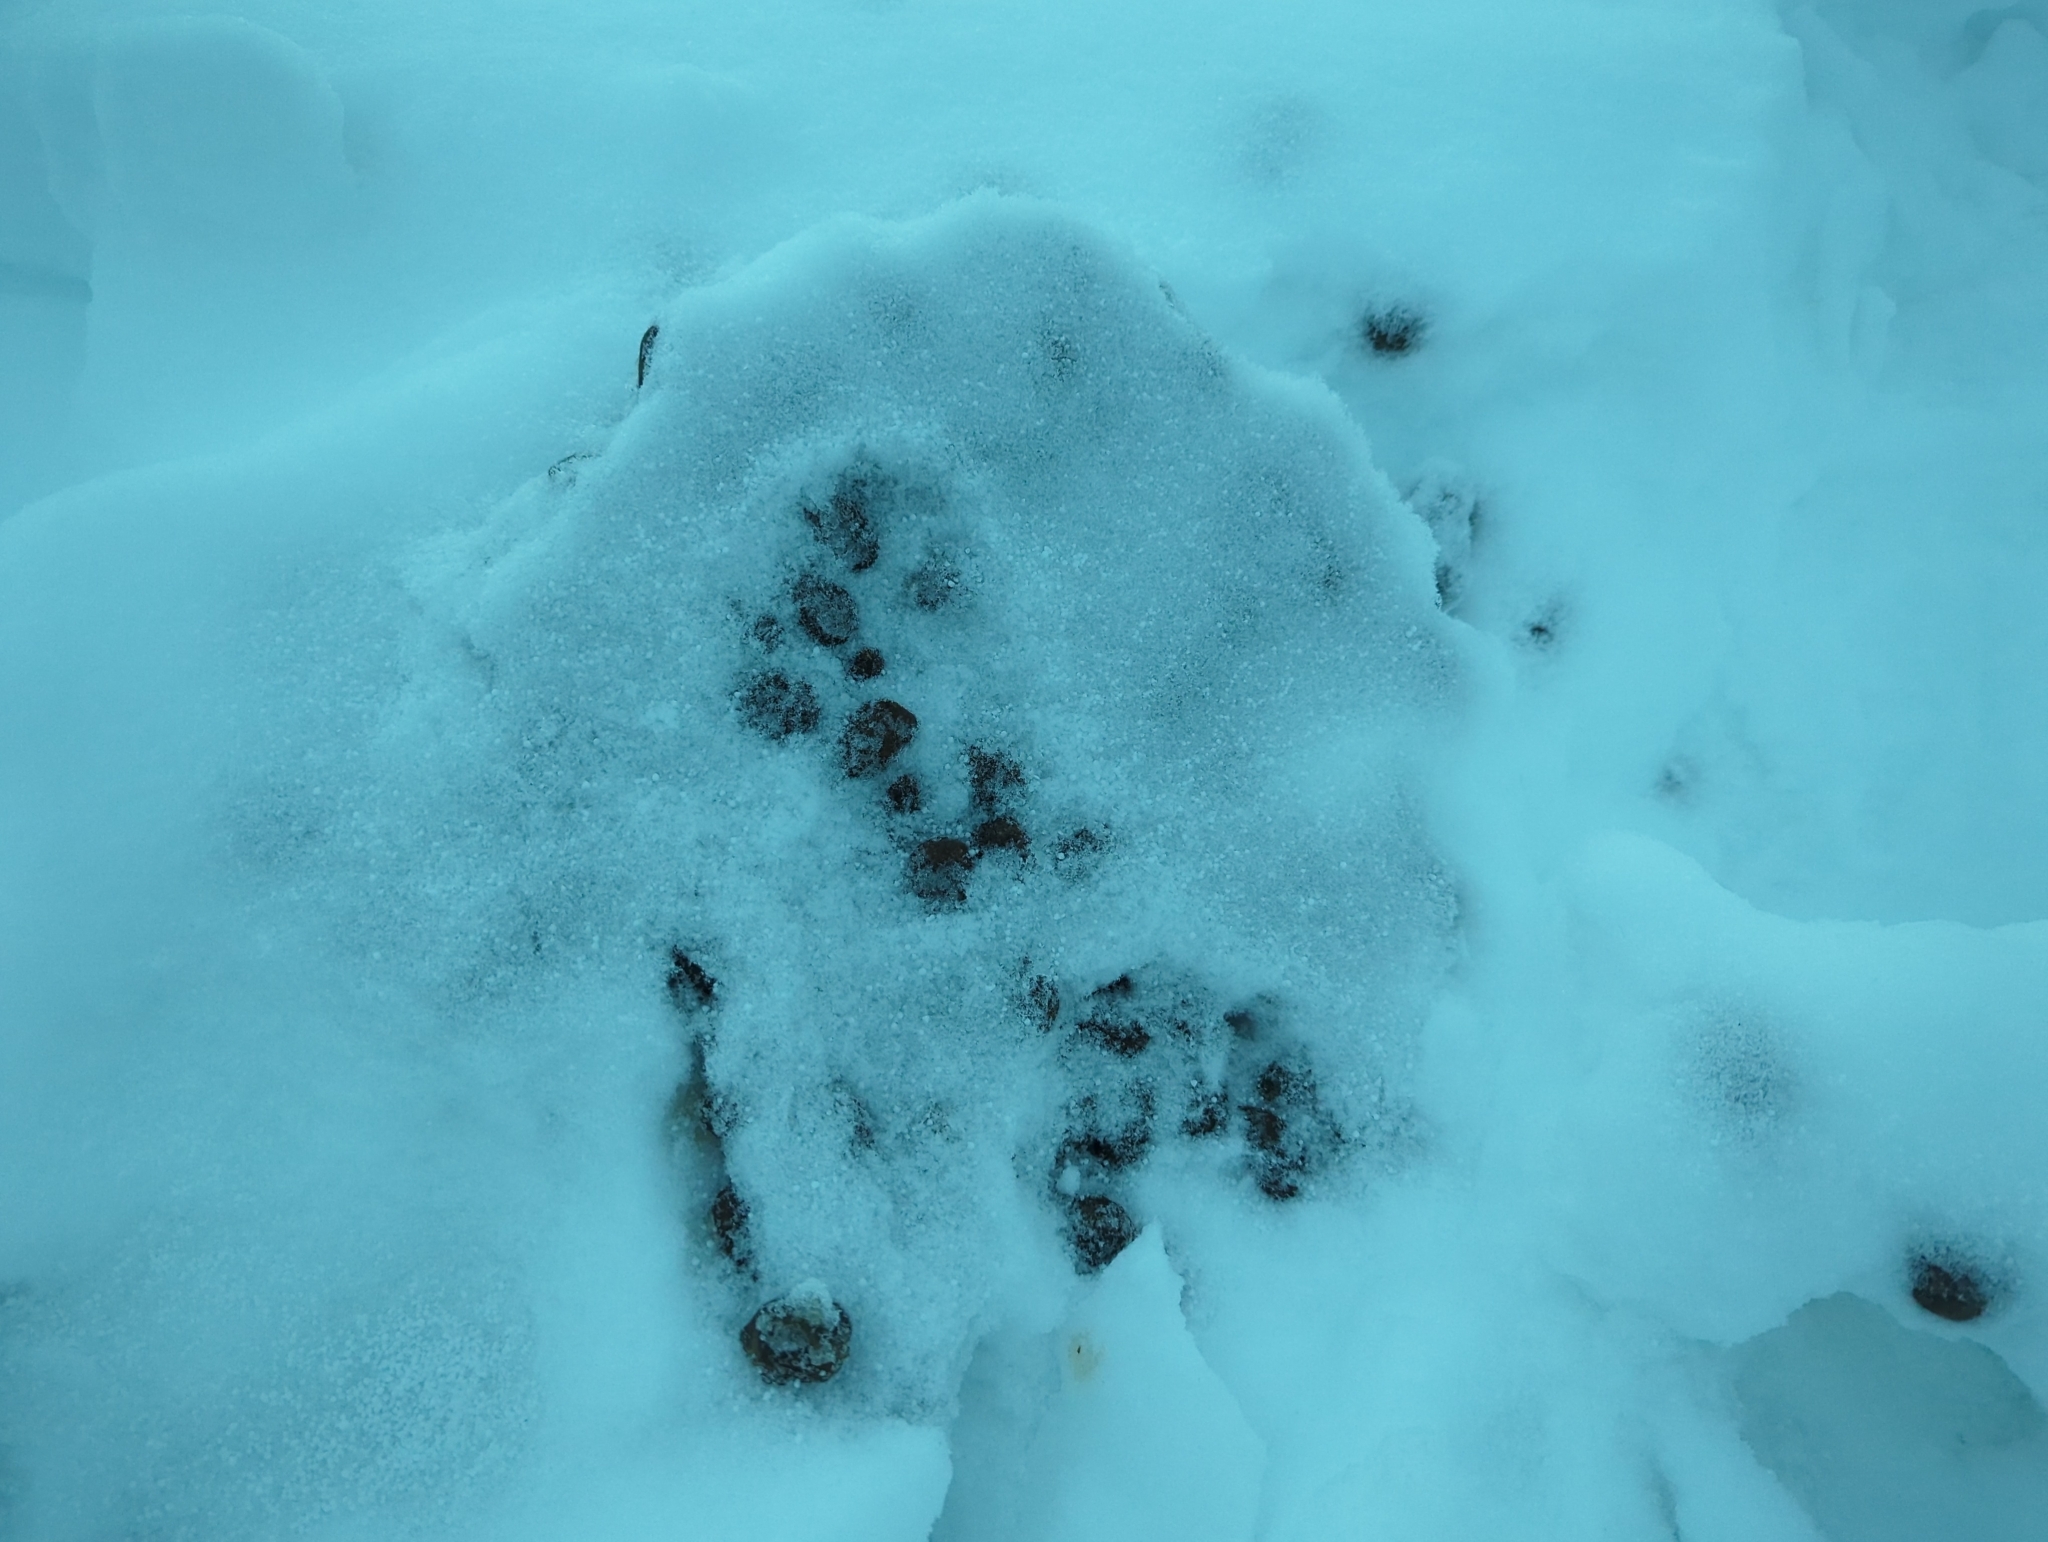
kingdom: Animalia
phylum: Chordata
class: Mammalia
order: Artiodactyla
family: Cervidae
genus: Alces
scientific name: Alces alces
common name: Moose
